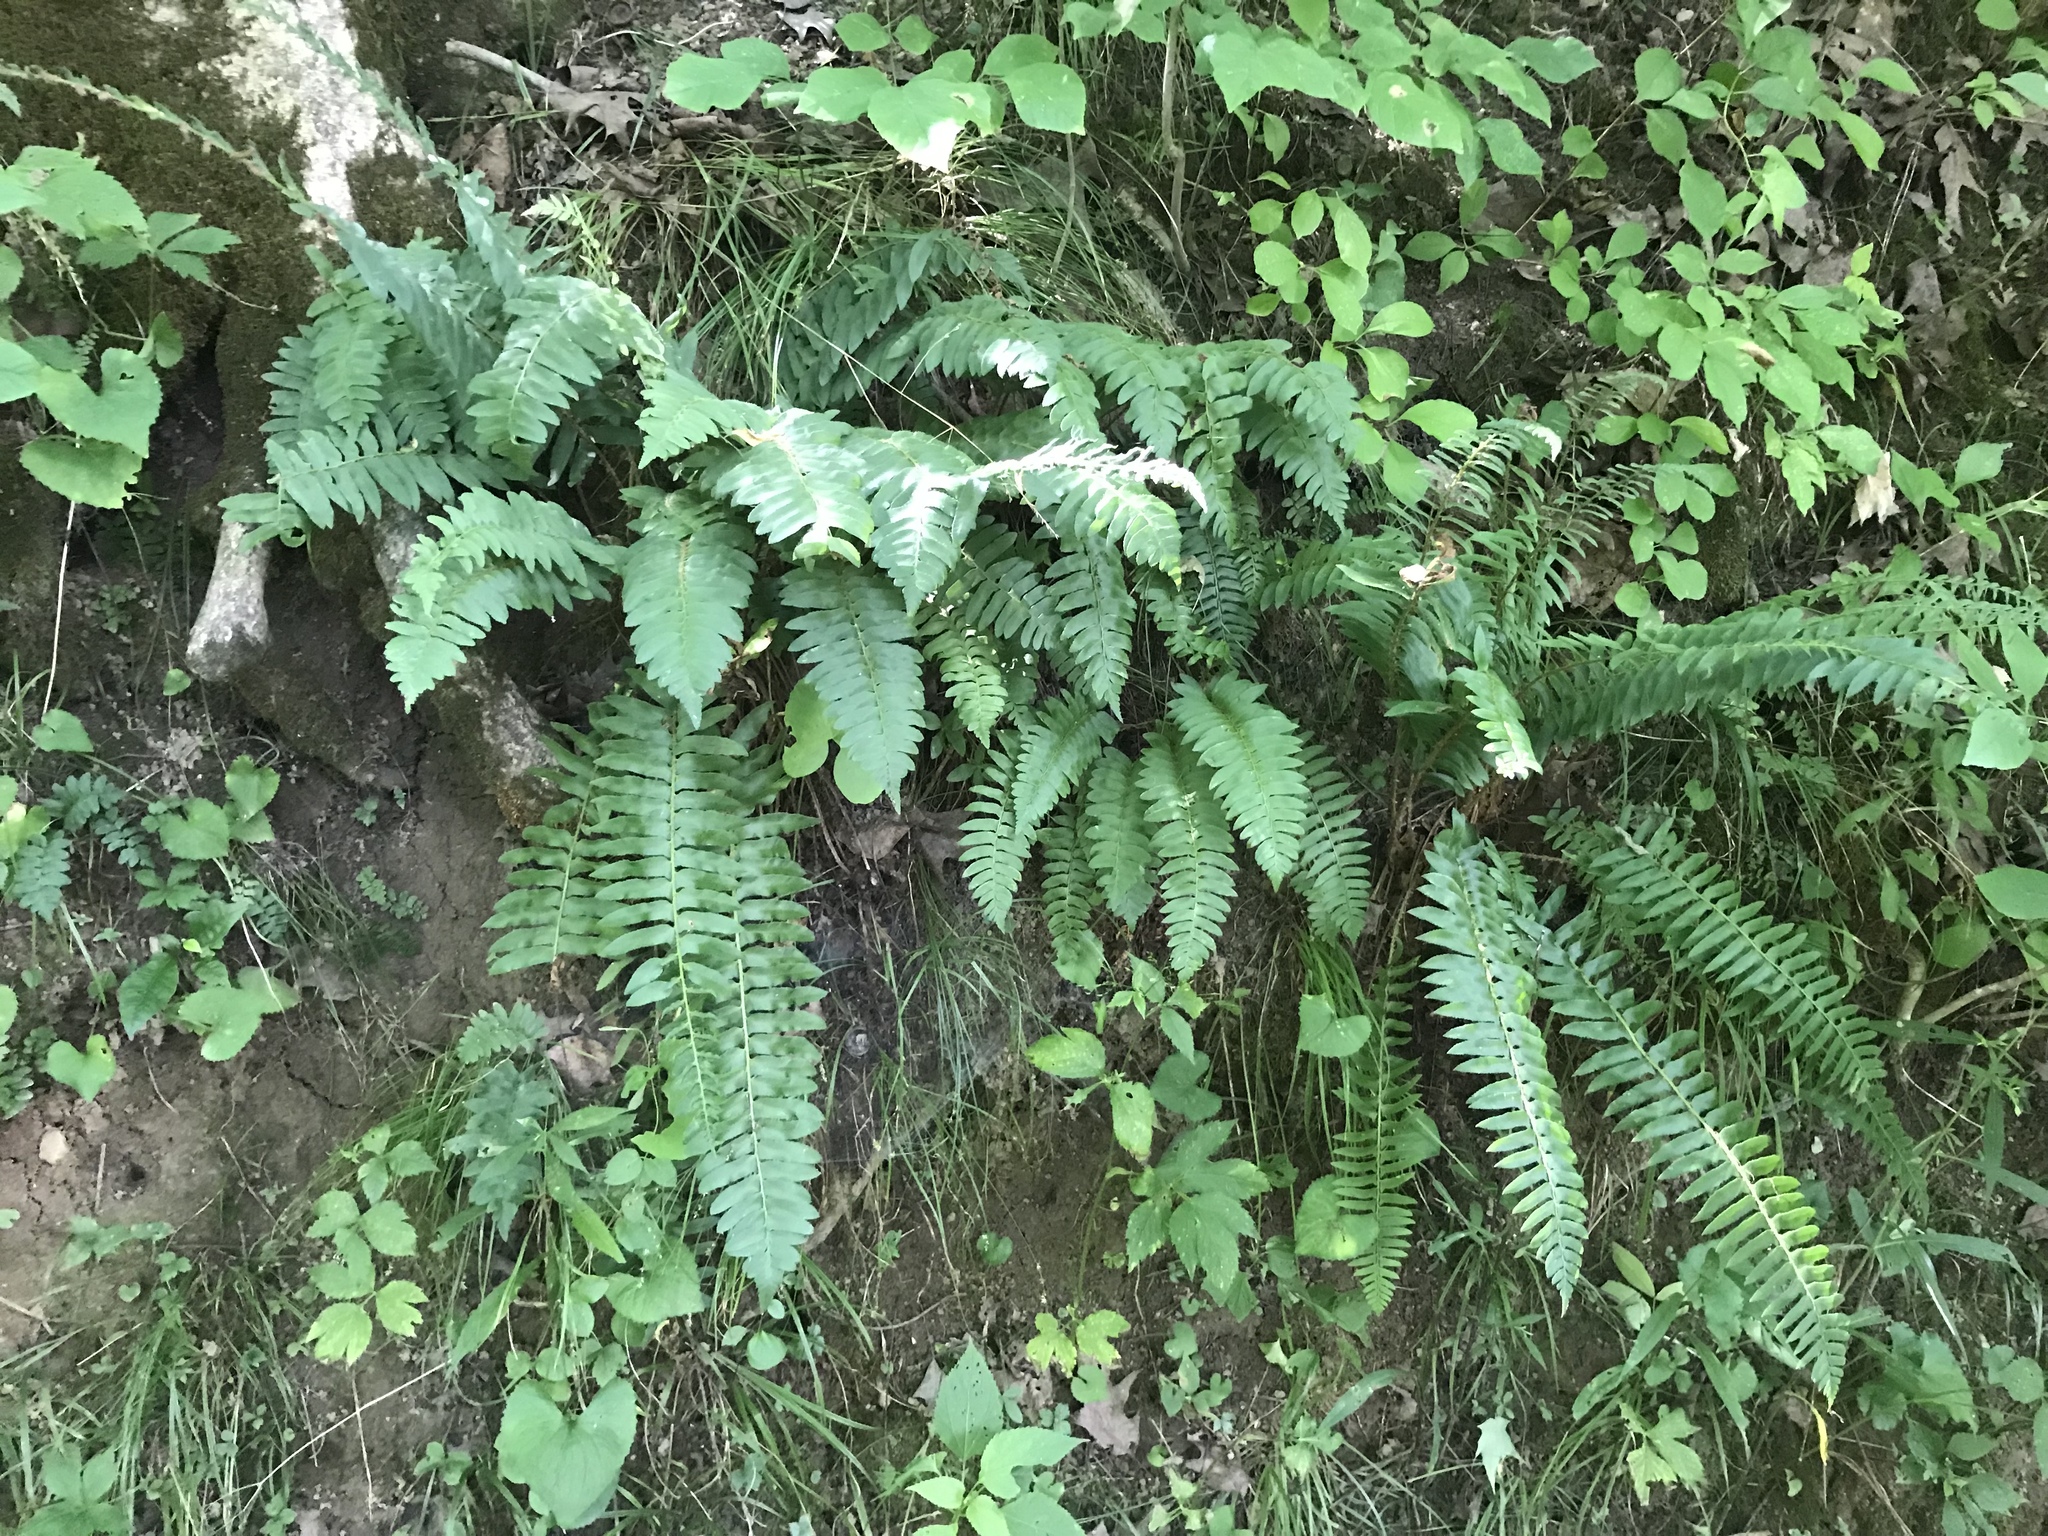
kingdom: Plantae
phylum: Tracheophyta
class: Polypodiopsida
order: Polypodiales
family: Dryopteridaceae
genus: Polystichum
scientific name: Polystichum acrostichoides
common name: Christmas fern
